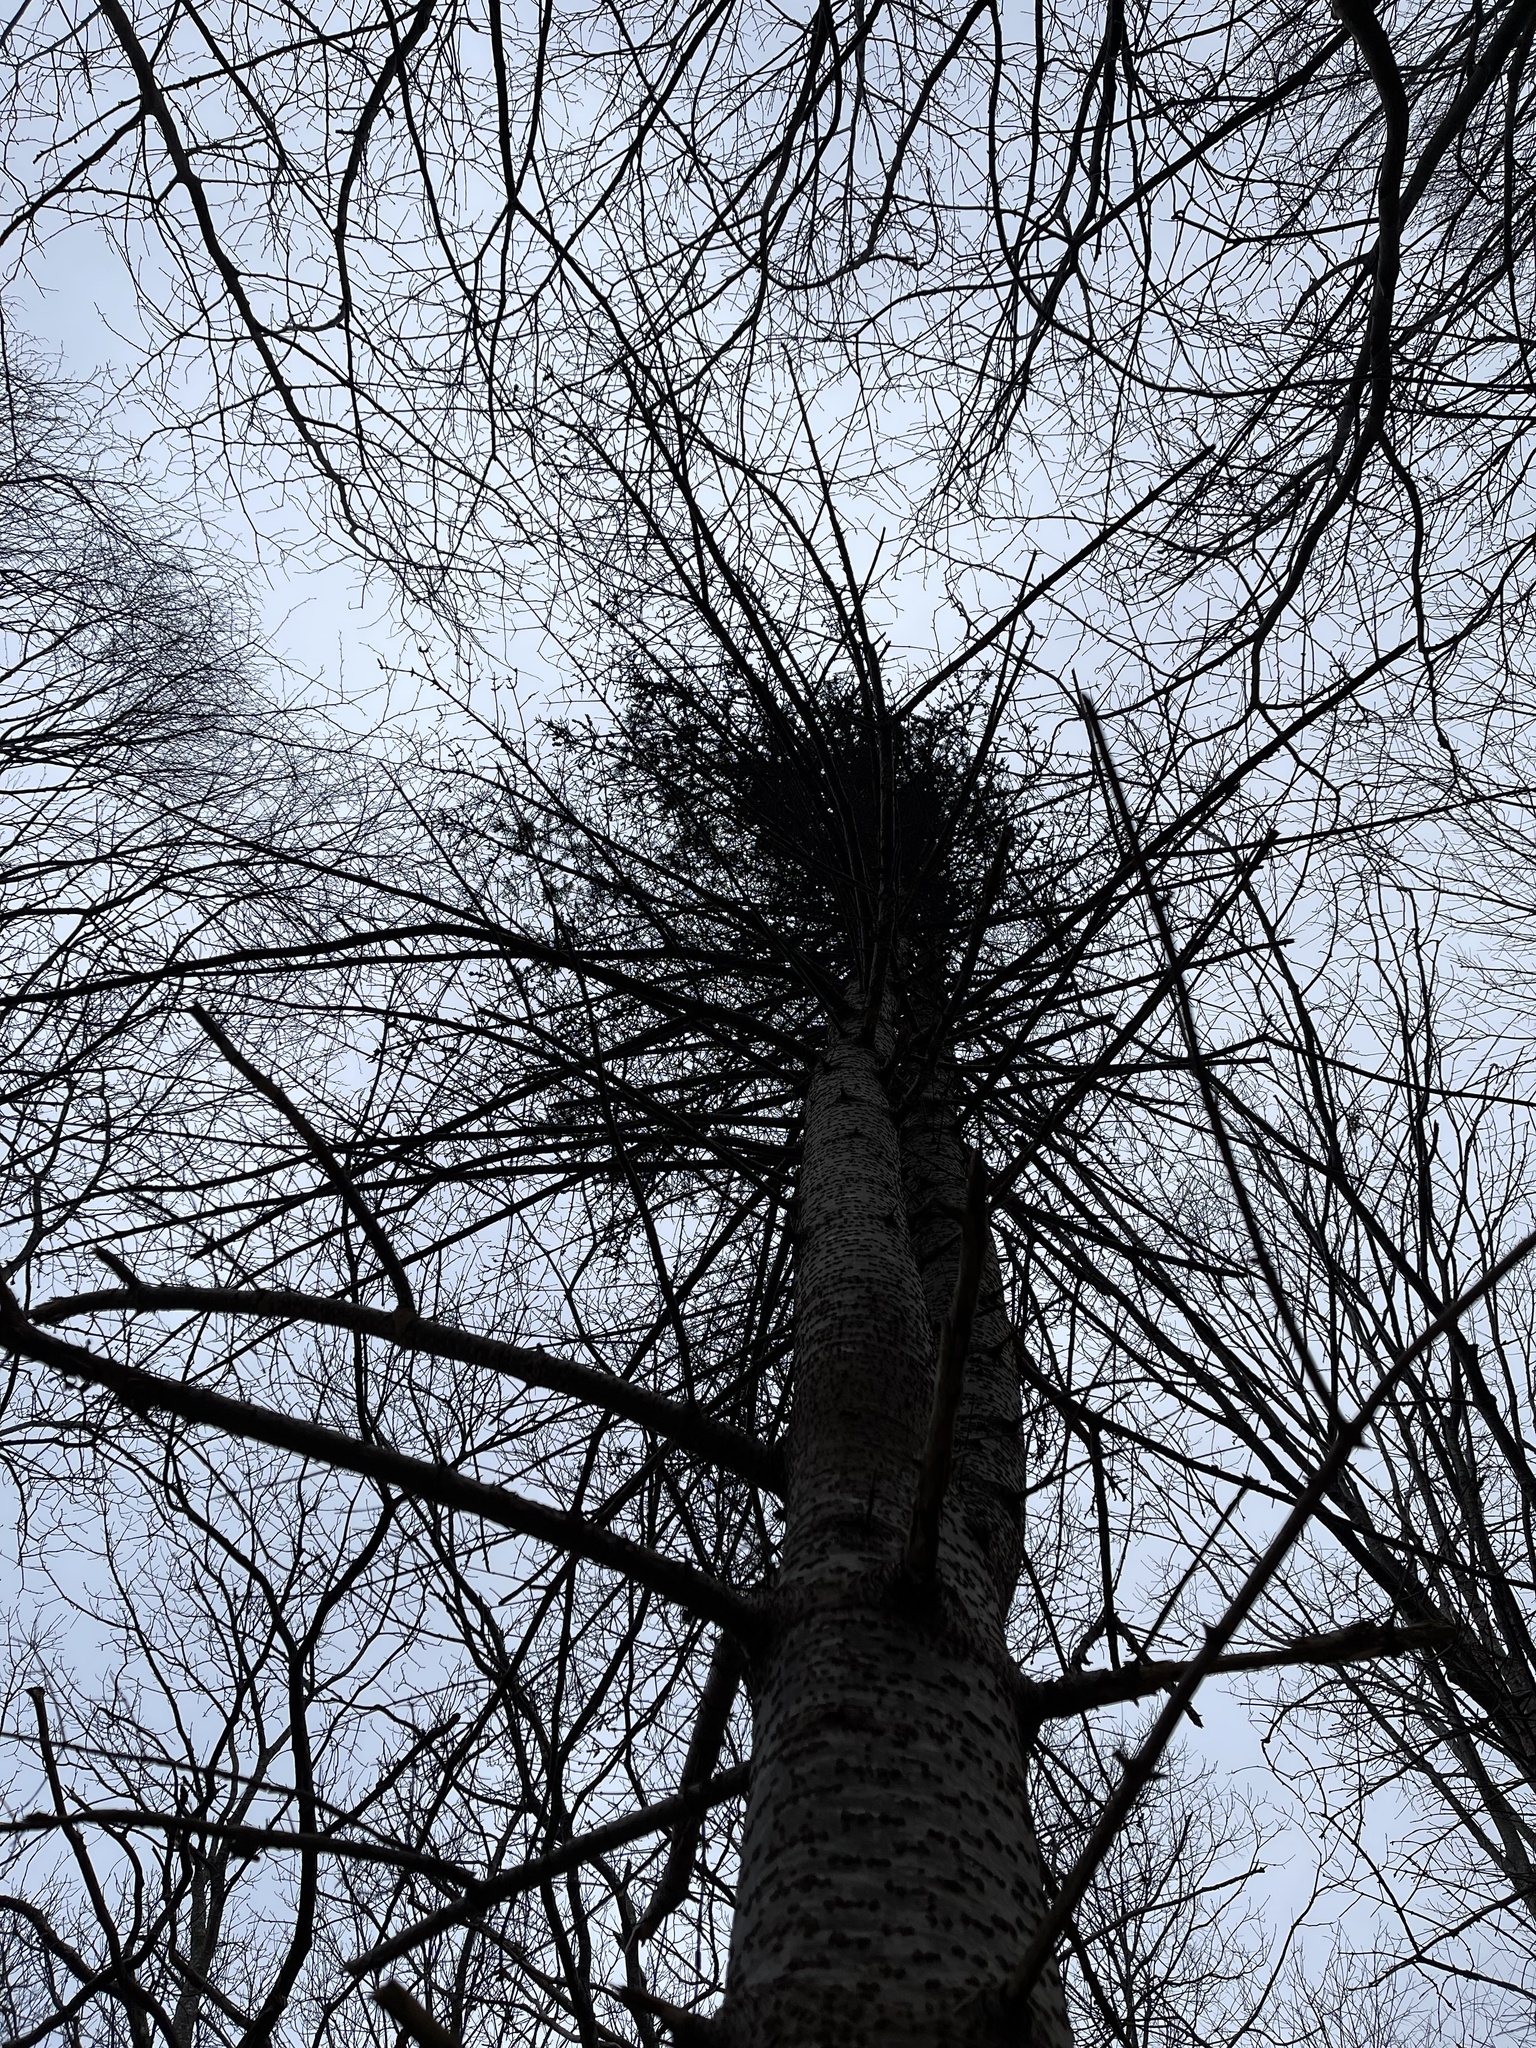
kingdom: Plantae
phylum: Tracheophyta
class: Pinopsida
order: Pinales
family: Pinaceae
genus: Abies
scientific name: Abies balsamea
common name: Balsam fir
